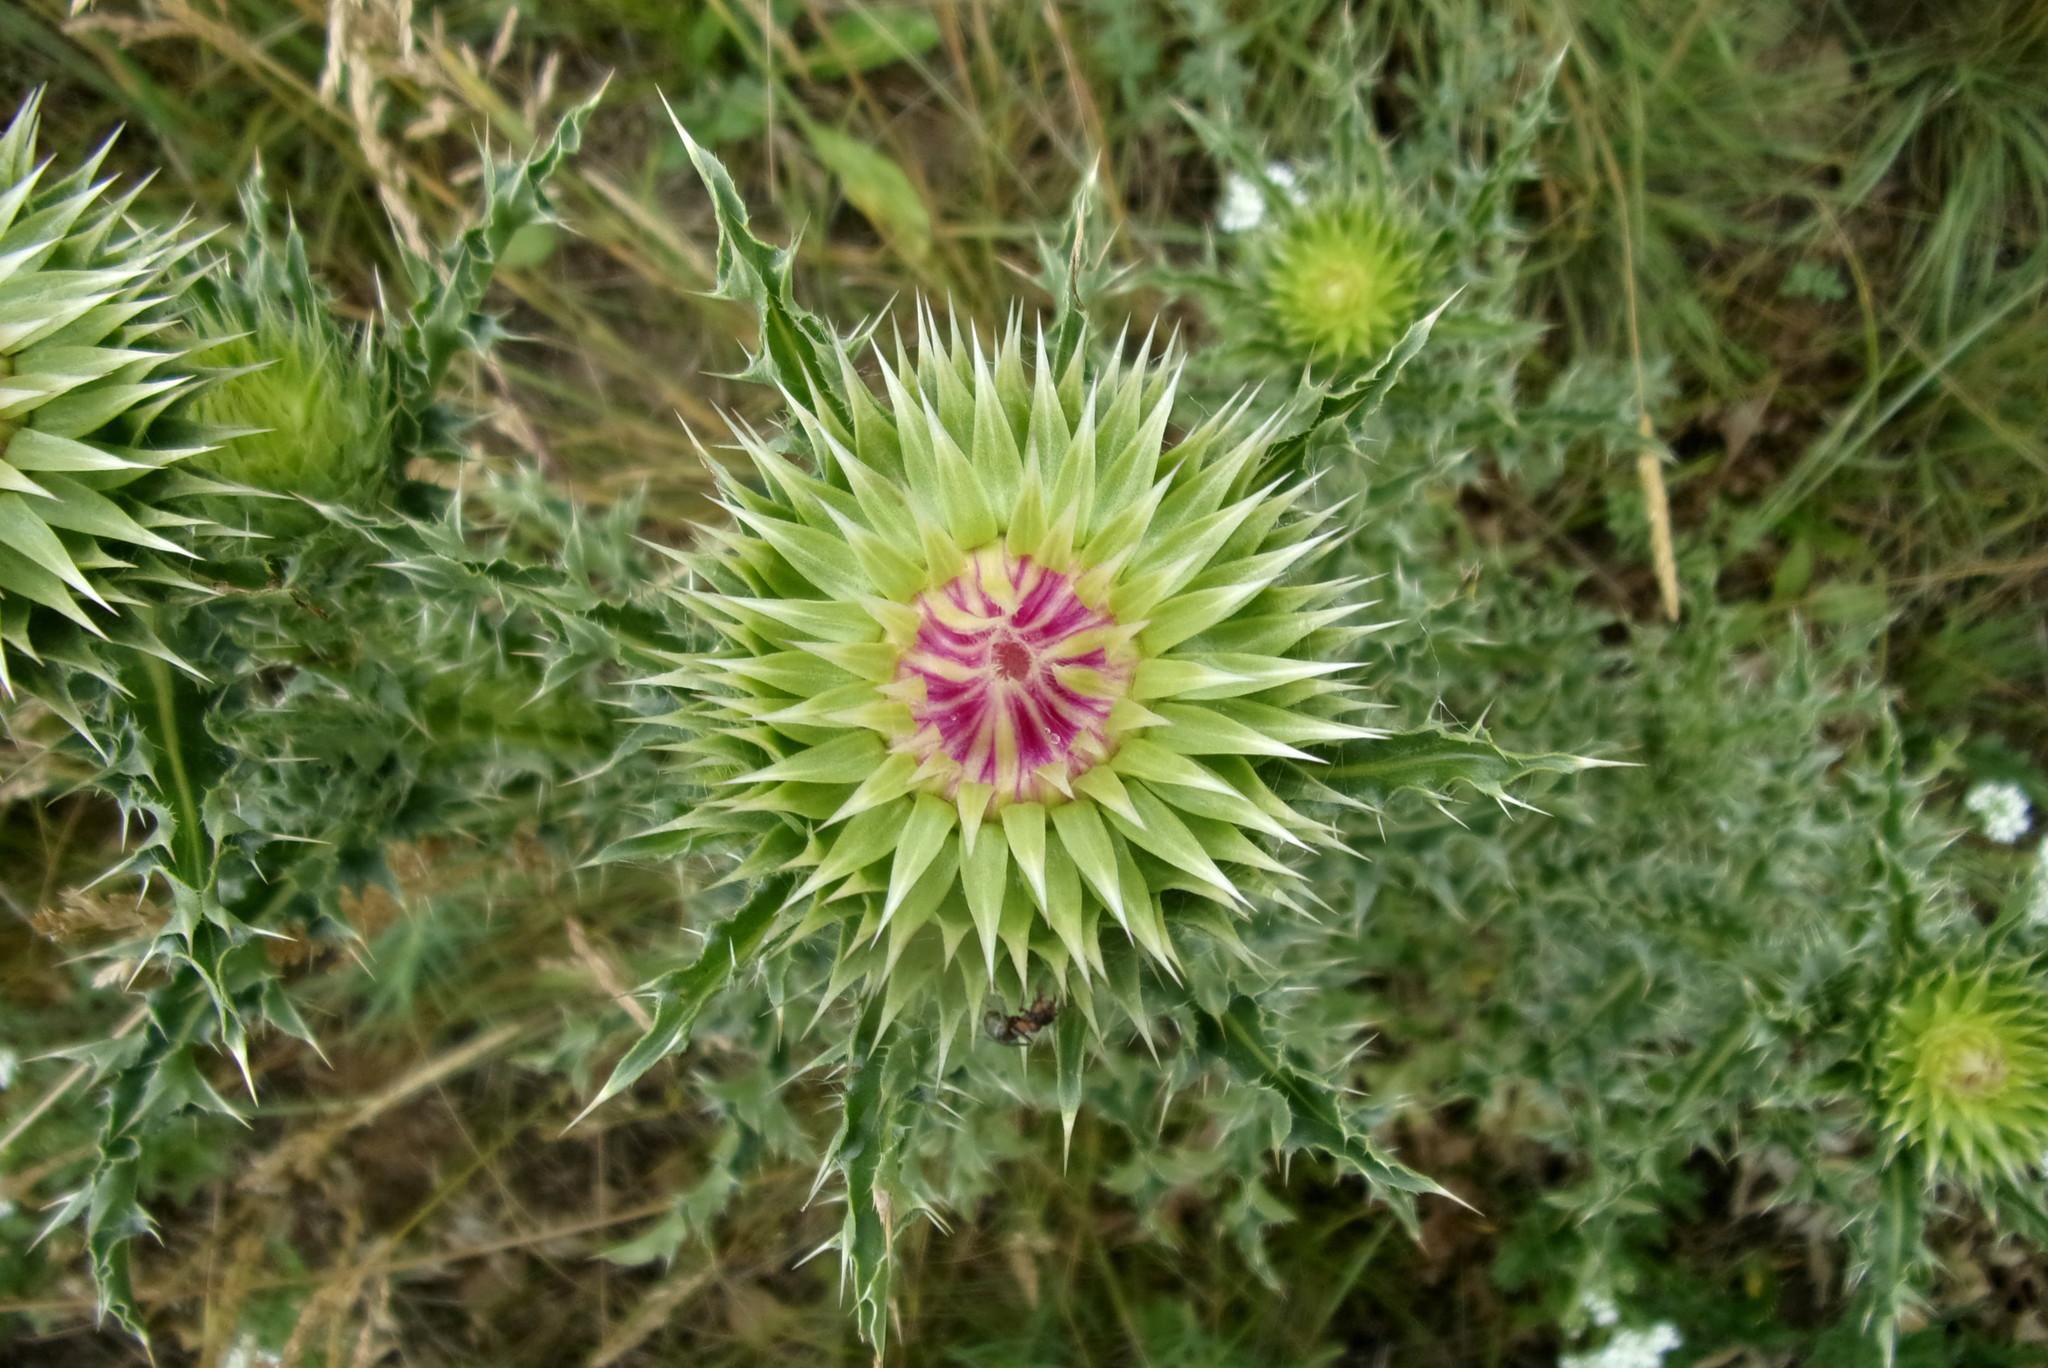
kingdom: Plantae
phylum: Tracheophyta
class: Magnoliopsida
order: Asterales
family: Asteraceae
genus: Carduus
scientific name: Carduus nutans
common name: Musk thistle
